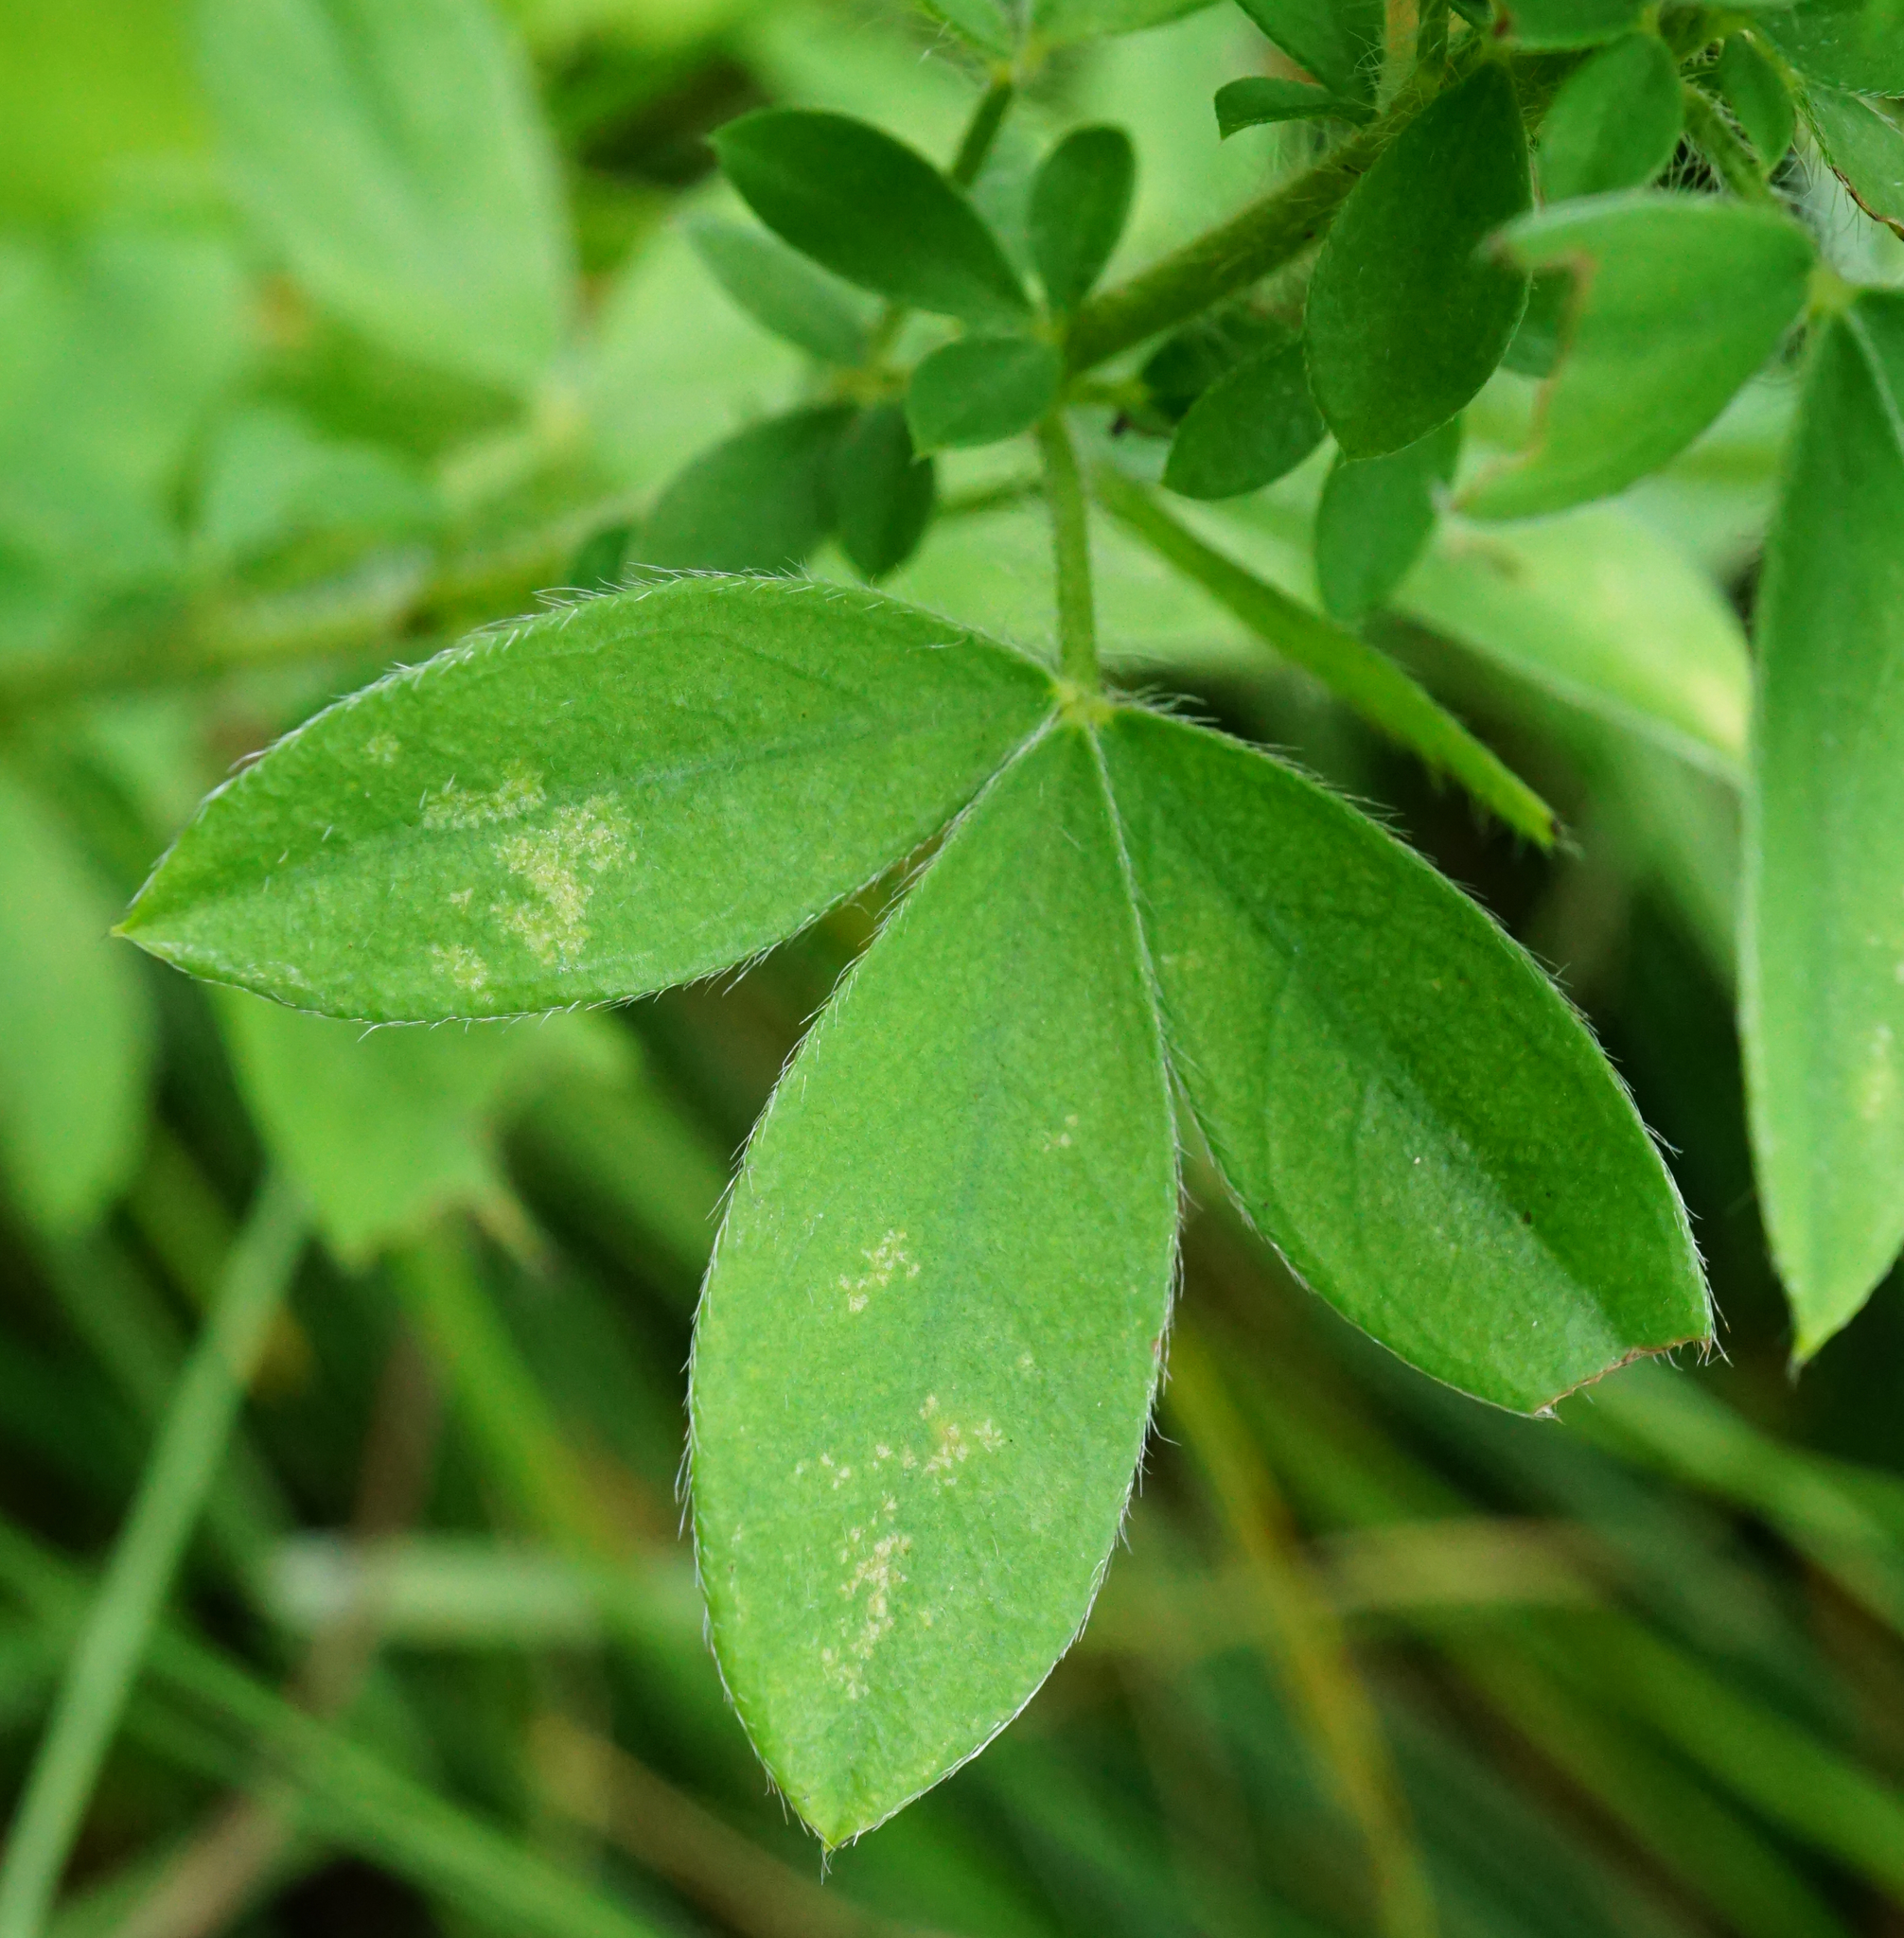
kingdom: Plantae
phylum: Tracheophyta
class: Magnoliopsida
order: Fabales
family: Fabaceae
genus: Chamaecytisus
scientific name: Chamaecytisus hirsutus
